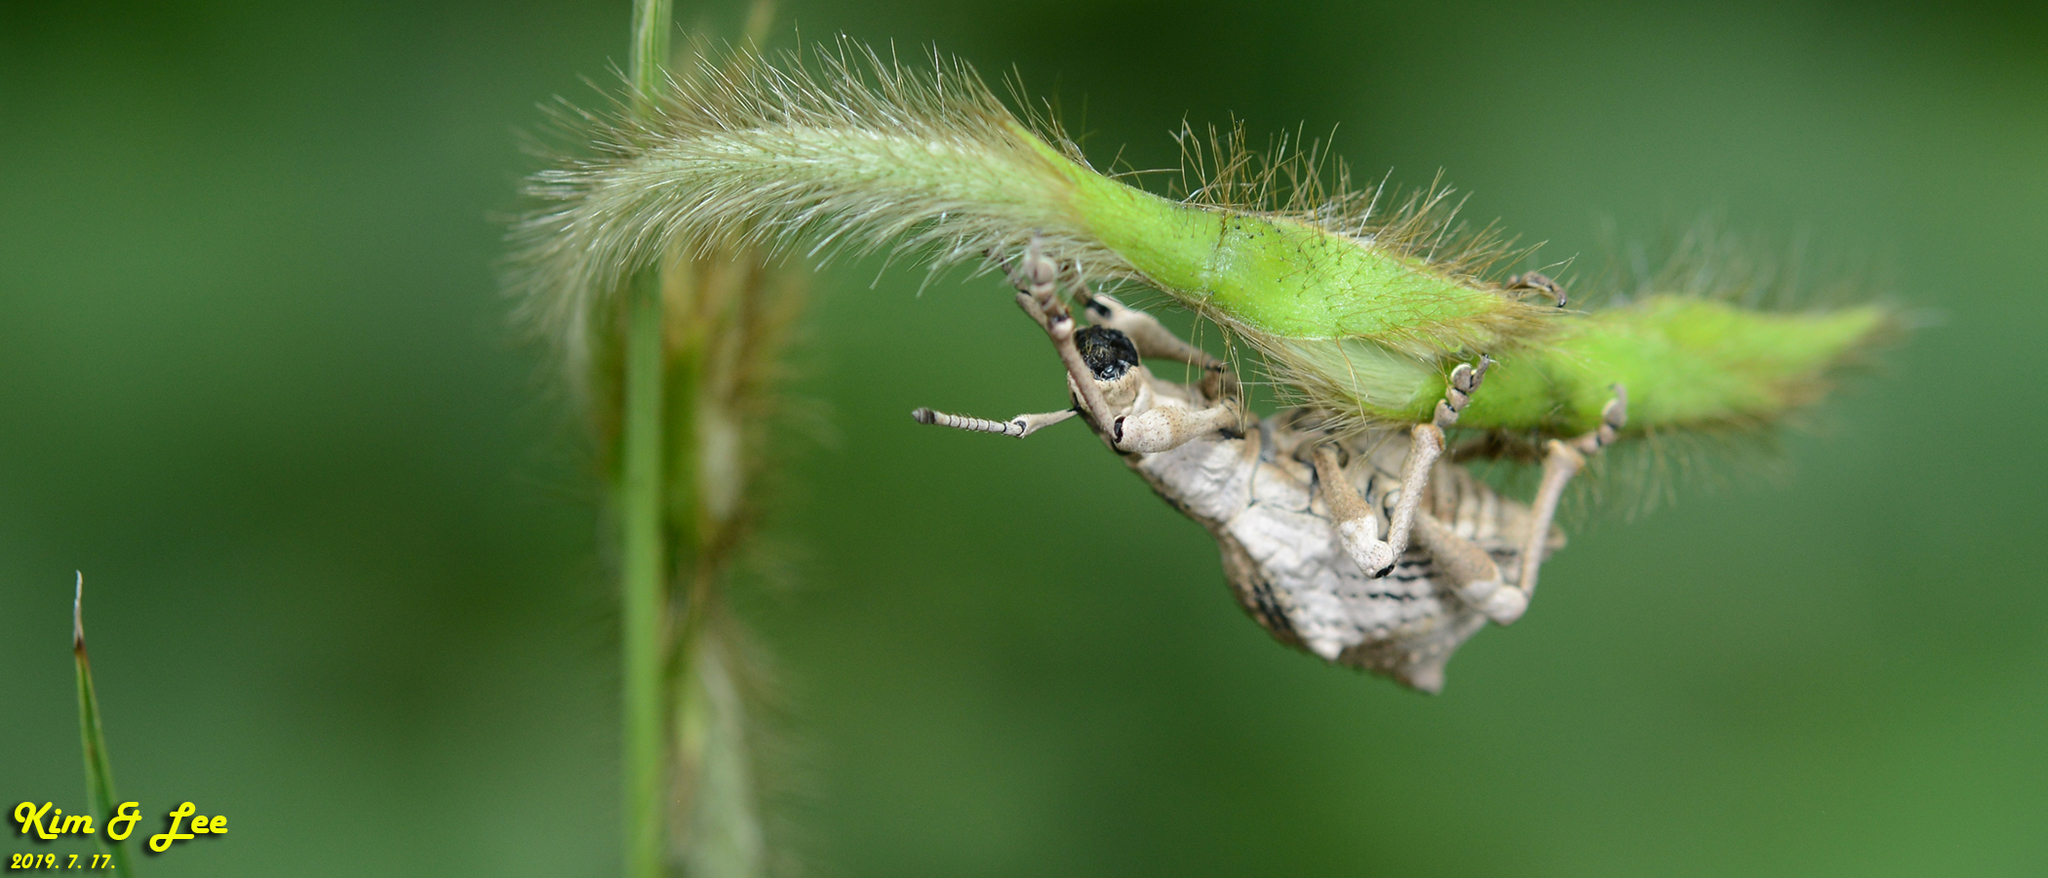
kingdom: Animalia
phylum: Arthropoda
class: Insecta
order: Coleoptera
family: Curculionidae
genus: Episomus
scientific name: Episomus turritus
